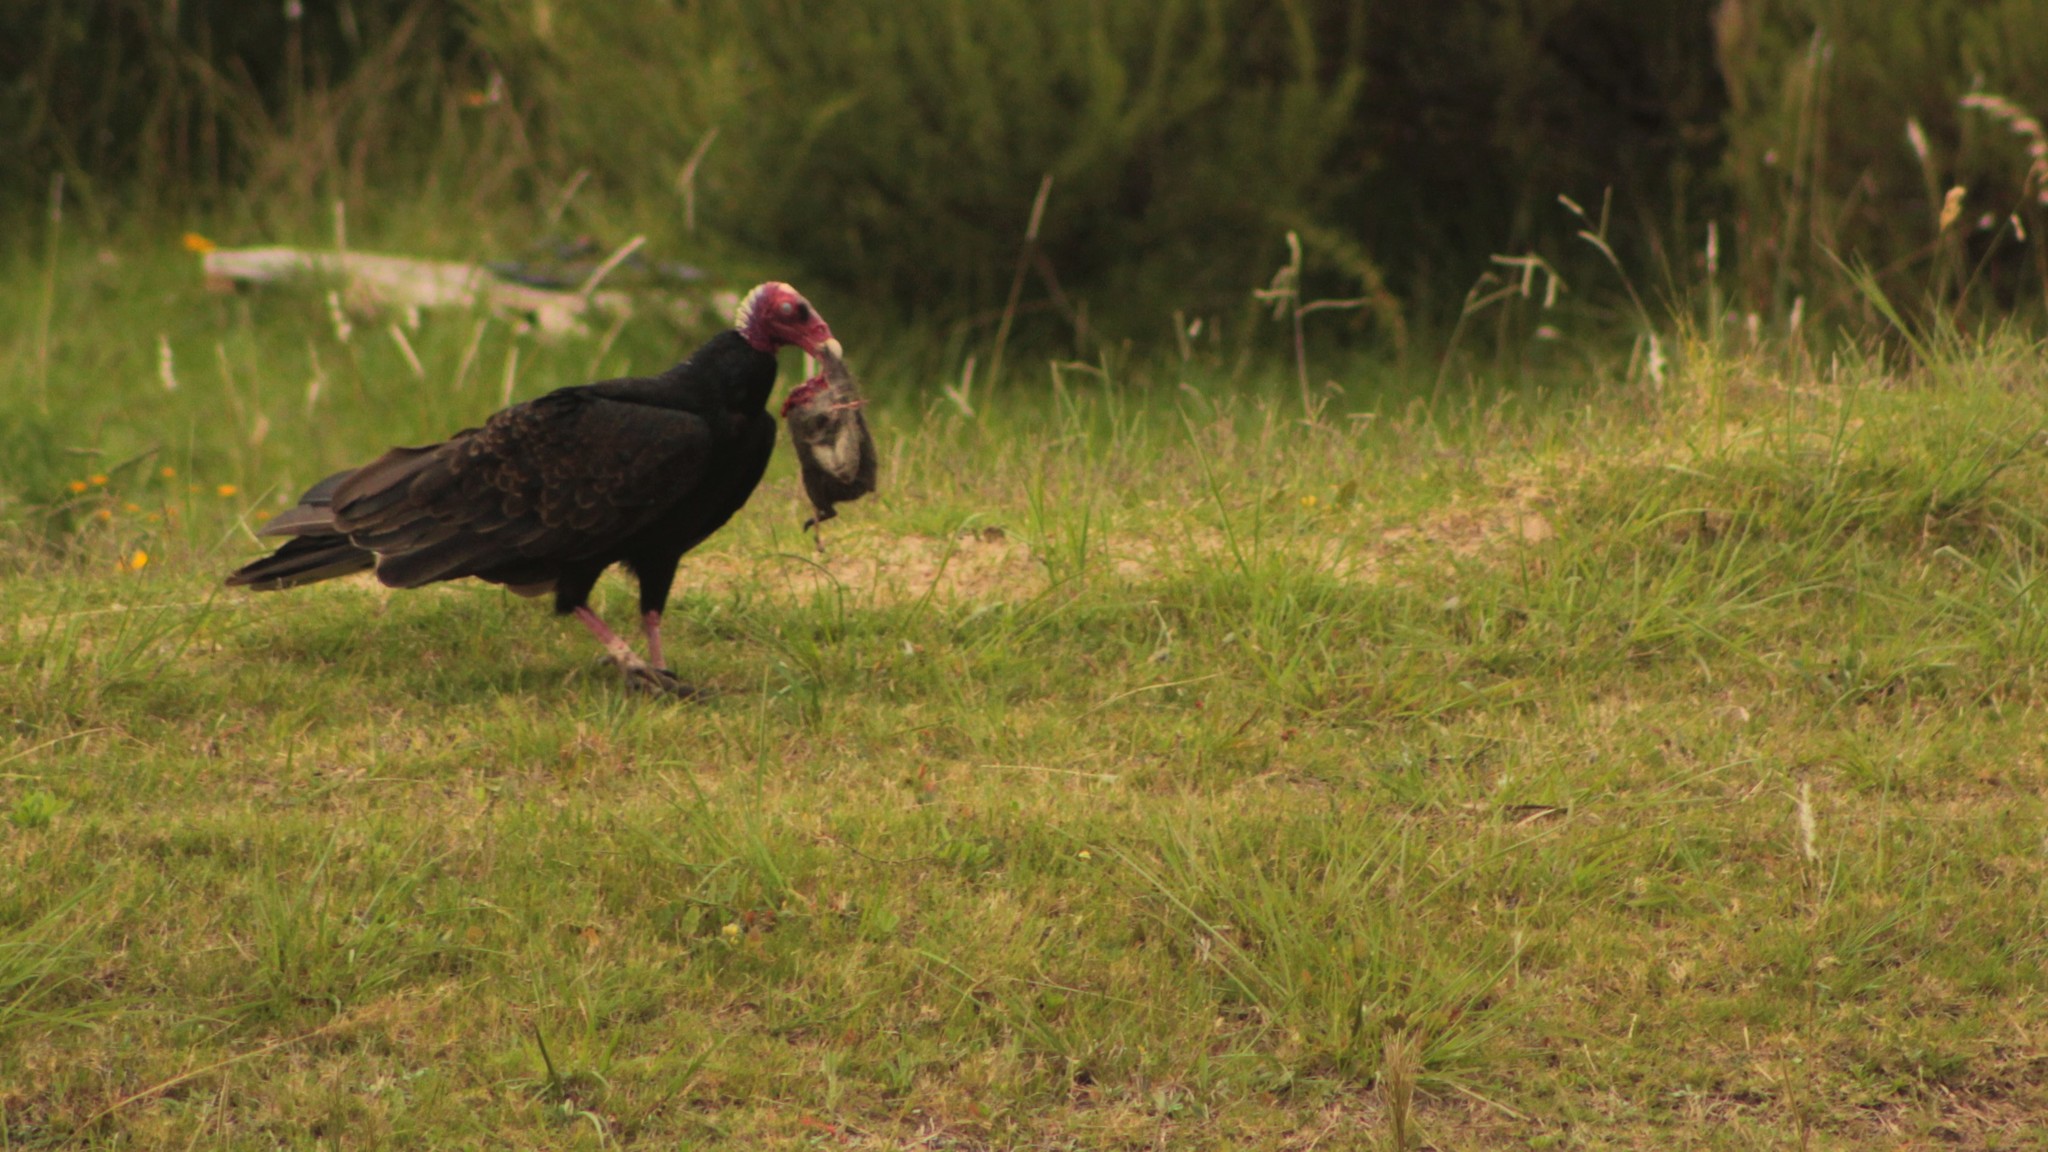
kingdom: Animalia
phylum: Chordata
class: Aves
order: Accipitriformes
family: Cathartidae
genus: Cathartes
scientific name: Cathartes aura
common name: Turkey vulture
